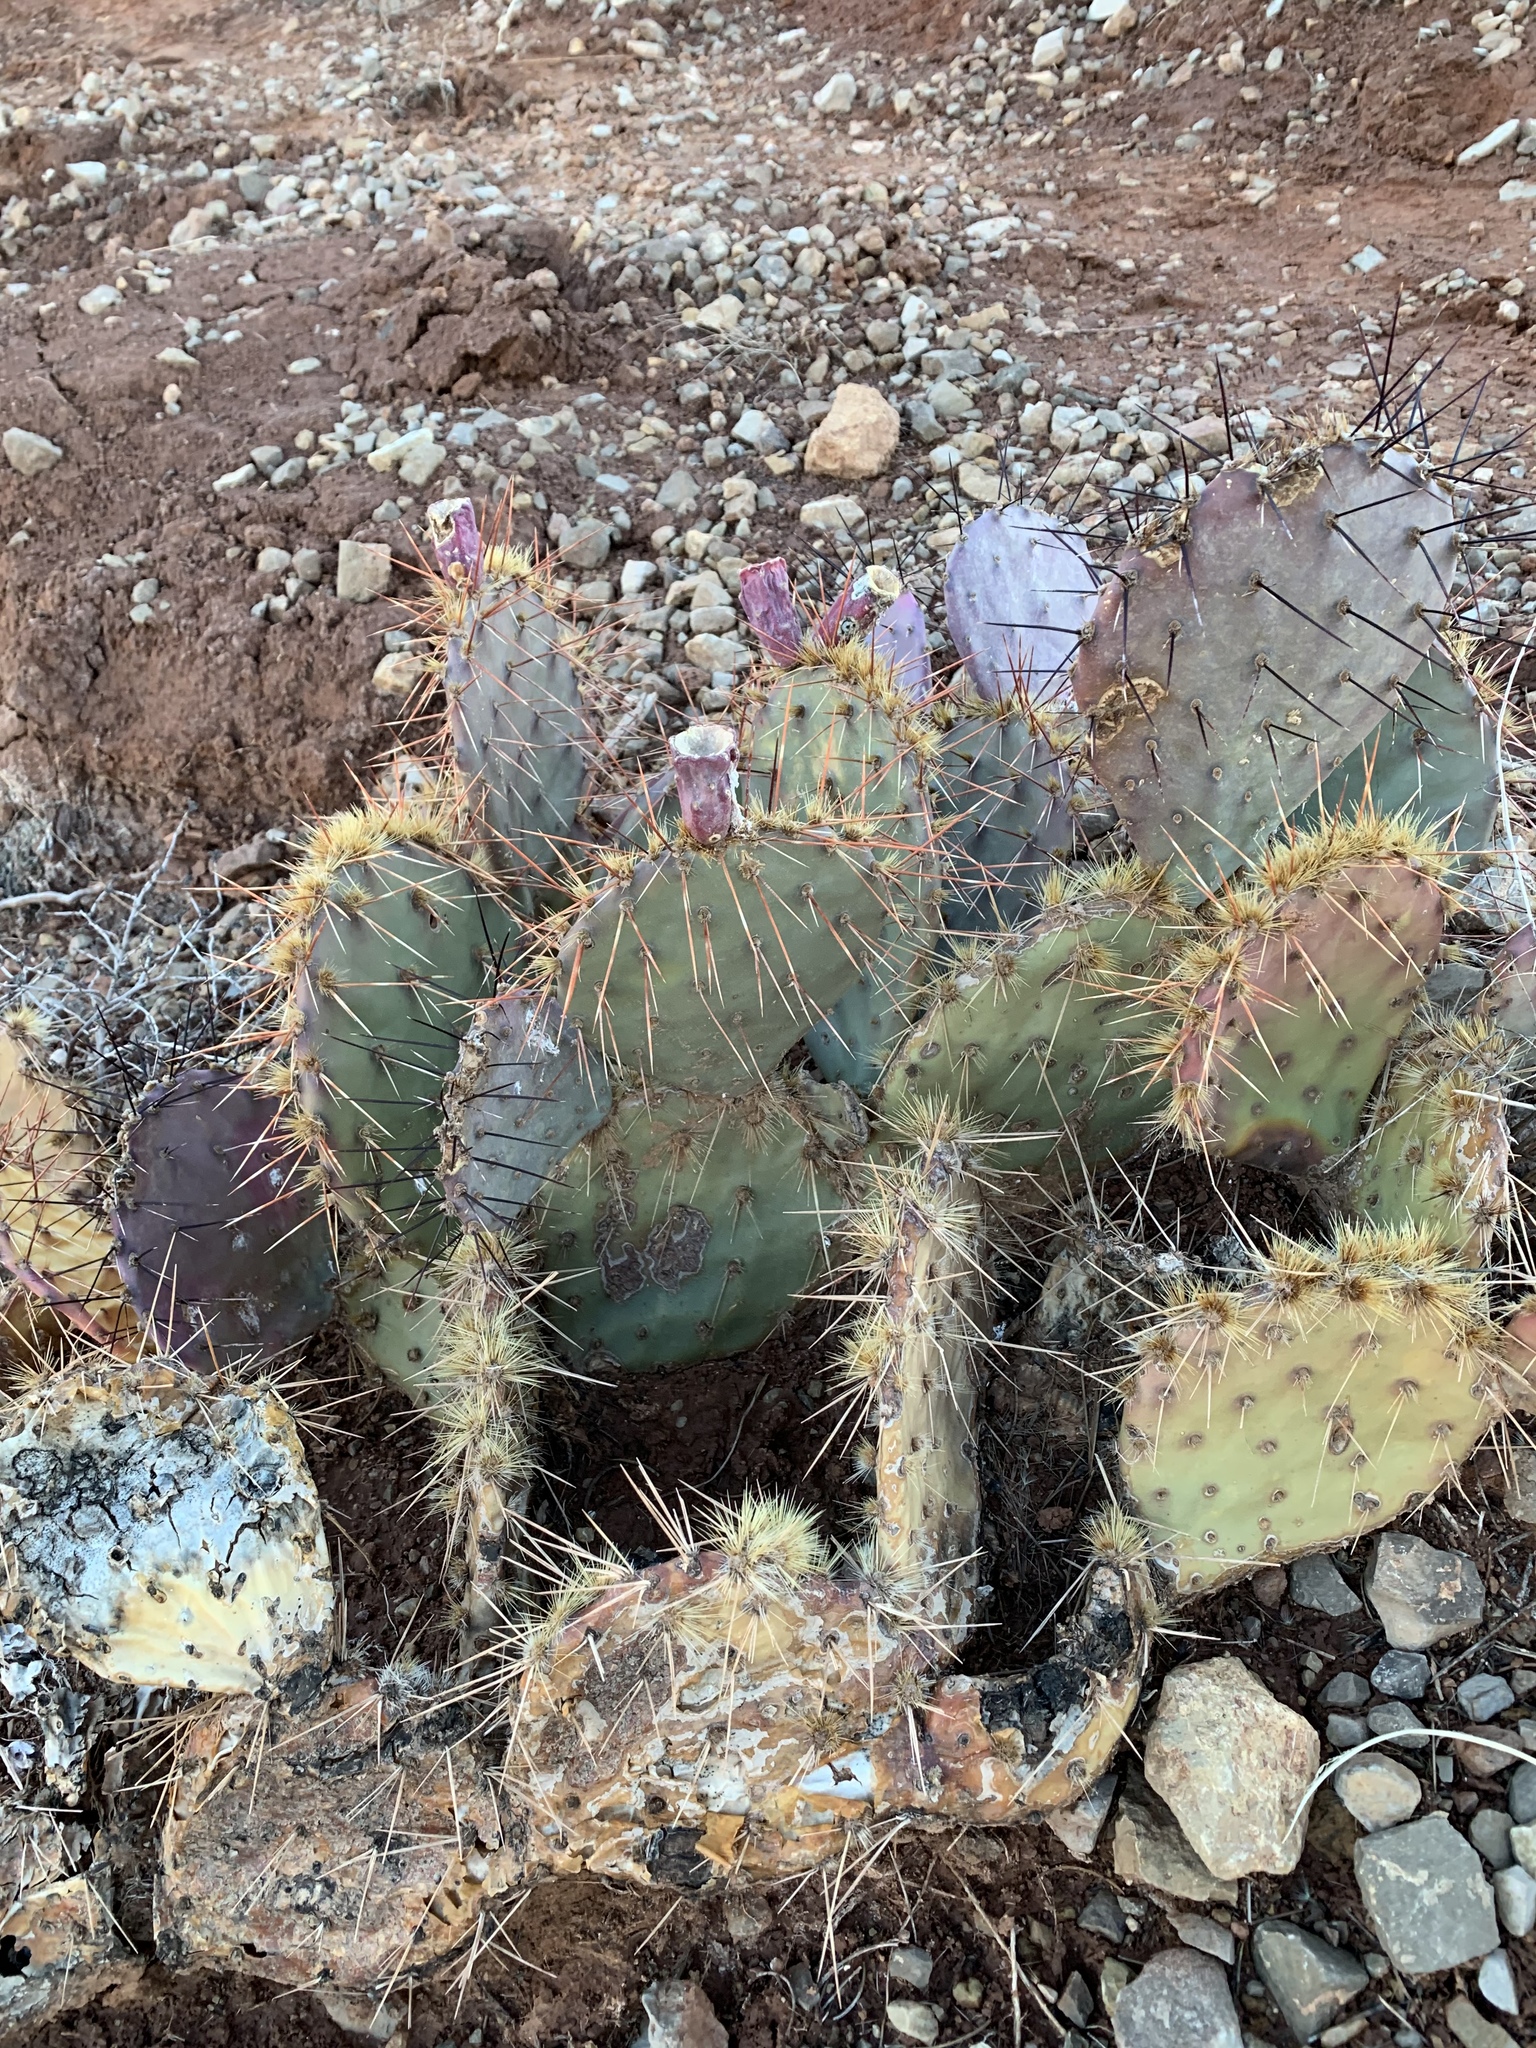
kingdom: Plantae
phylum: Tracheophyta
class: Magnoliopsida
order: Caryophyllales
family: Cactaceae
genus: Opuntia
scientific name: Opuntia phaeacantha
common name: New mexico prickly-pear
